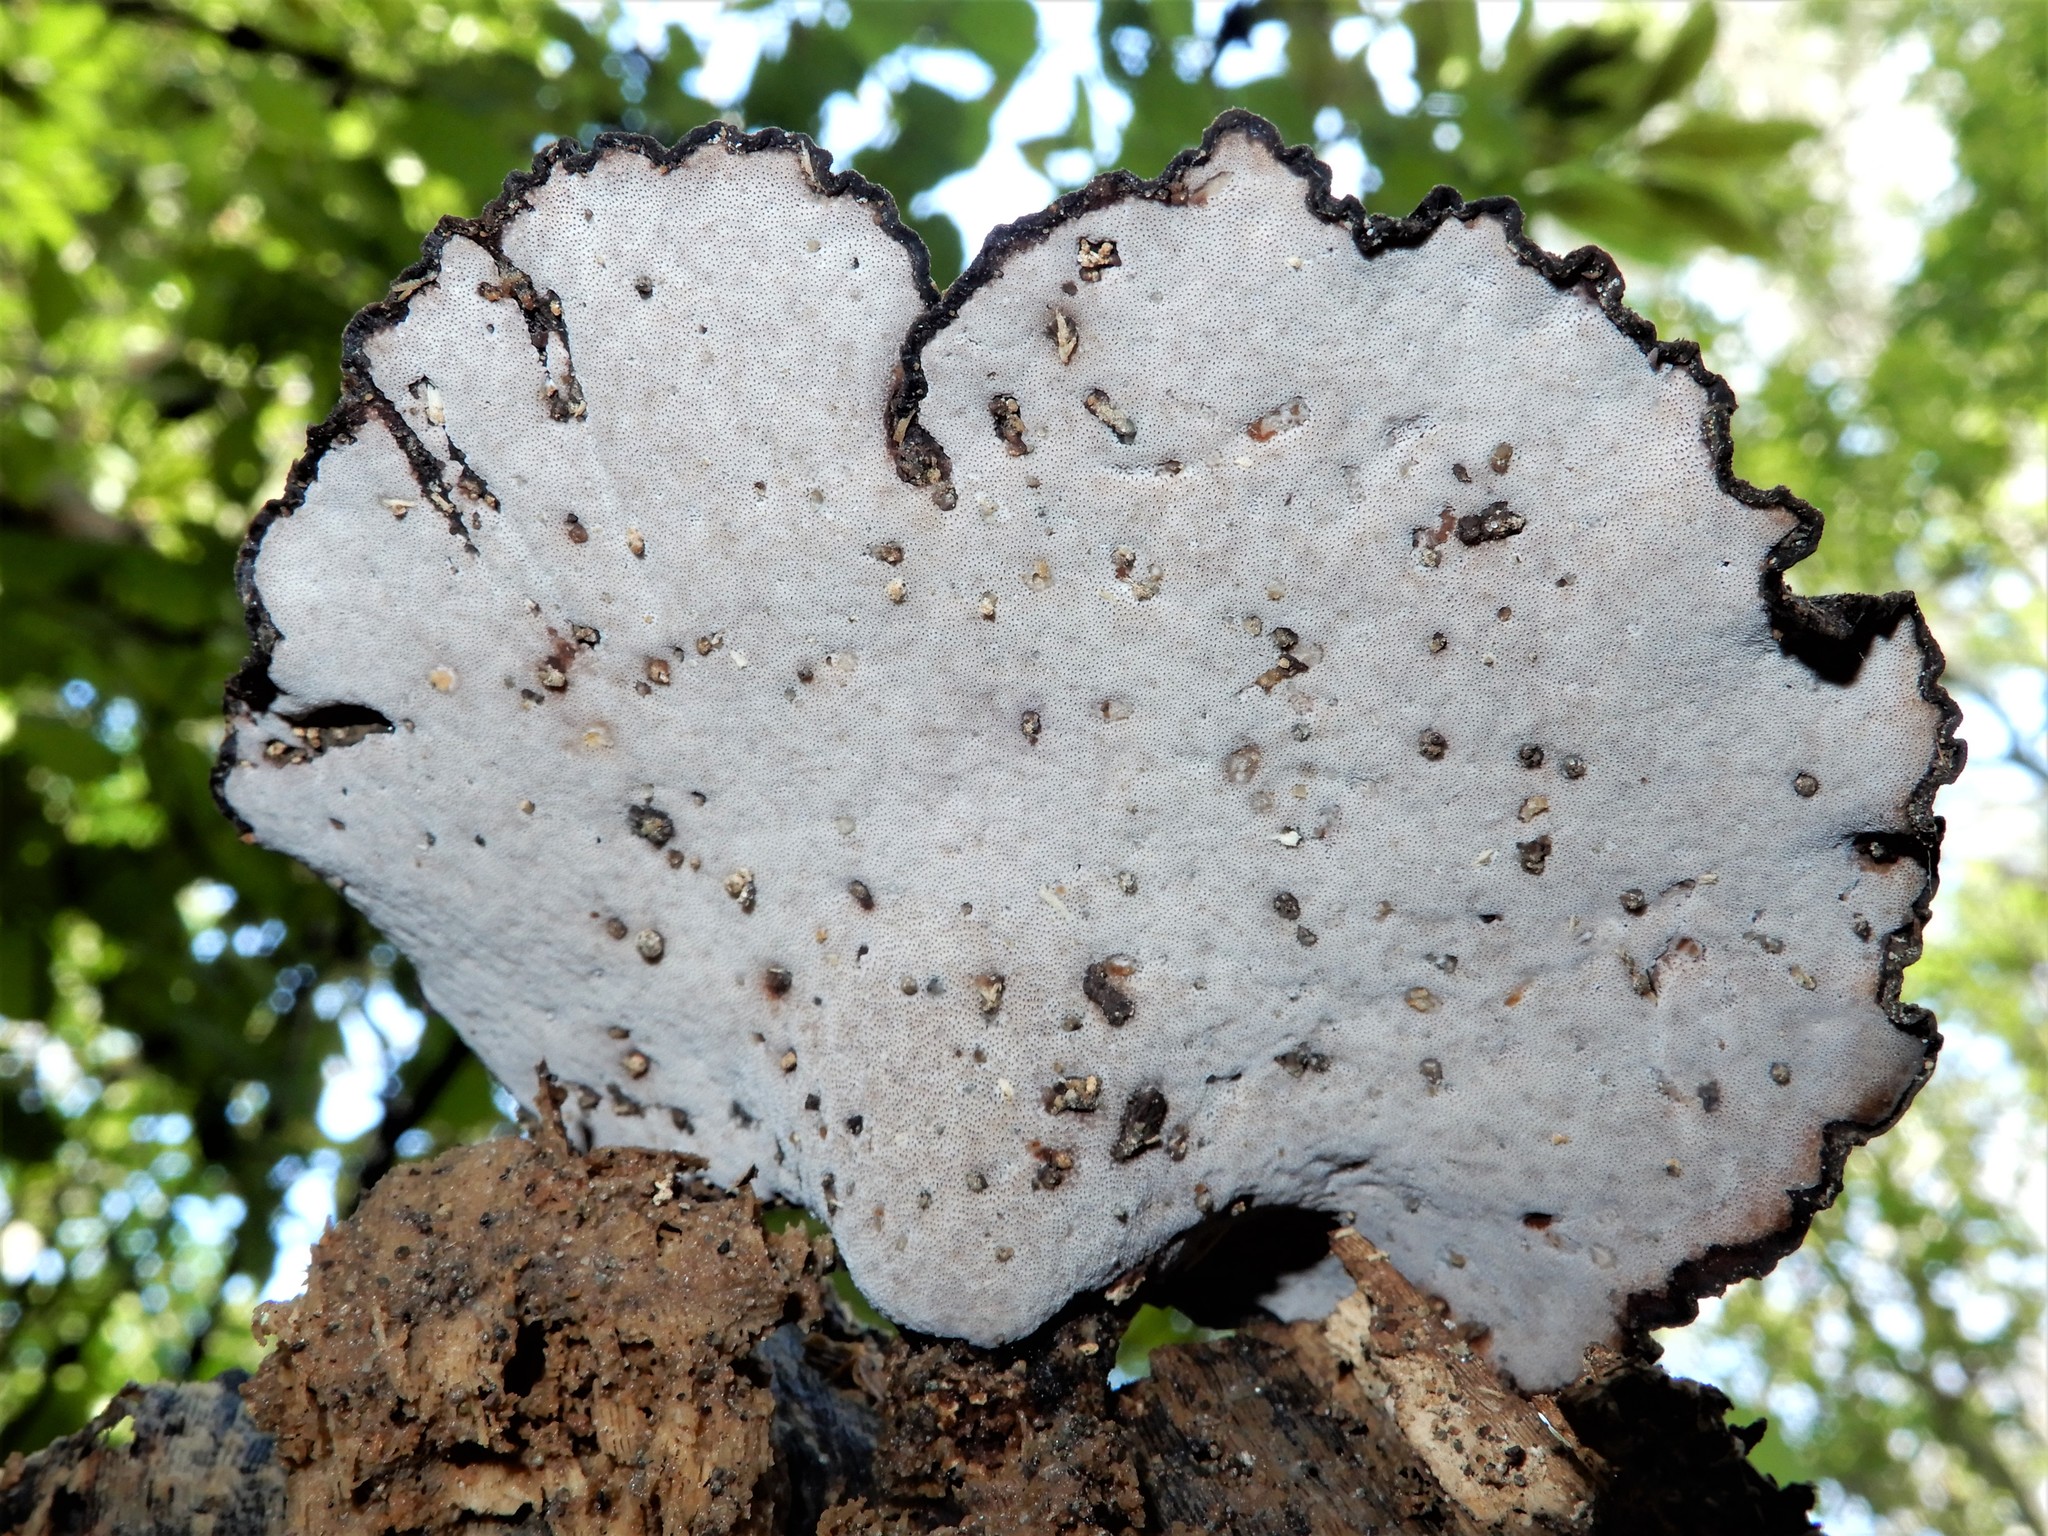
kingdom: Fungi
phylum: Basidiomycota
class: Agaricomycetes
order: Polyporales
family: Polyporaceae
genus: Picipes
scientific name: Picipes dictyopus
